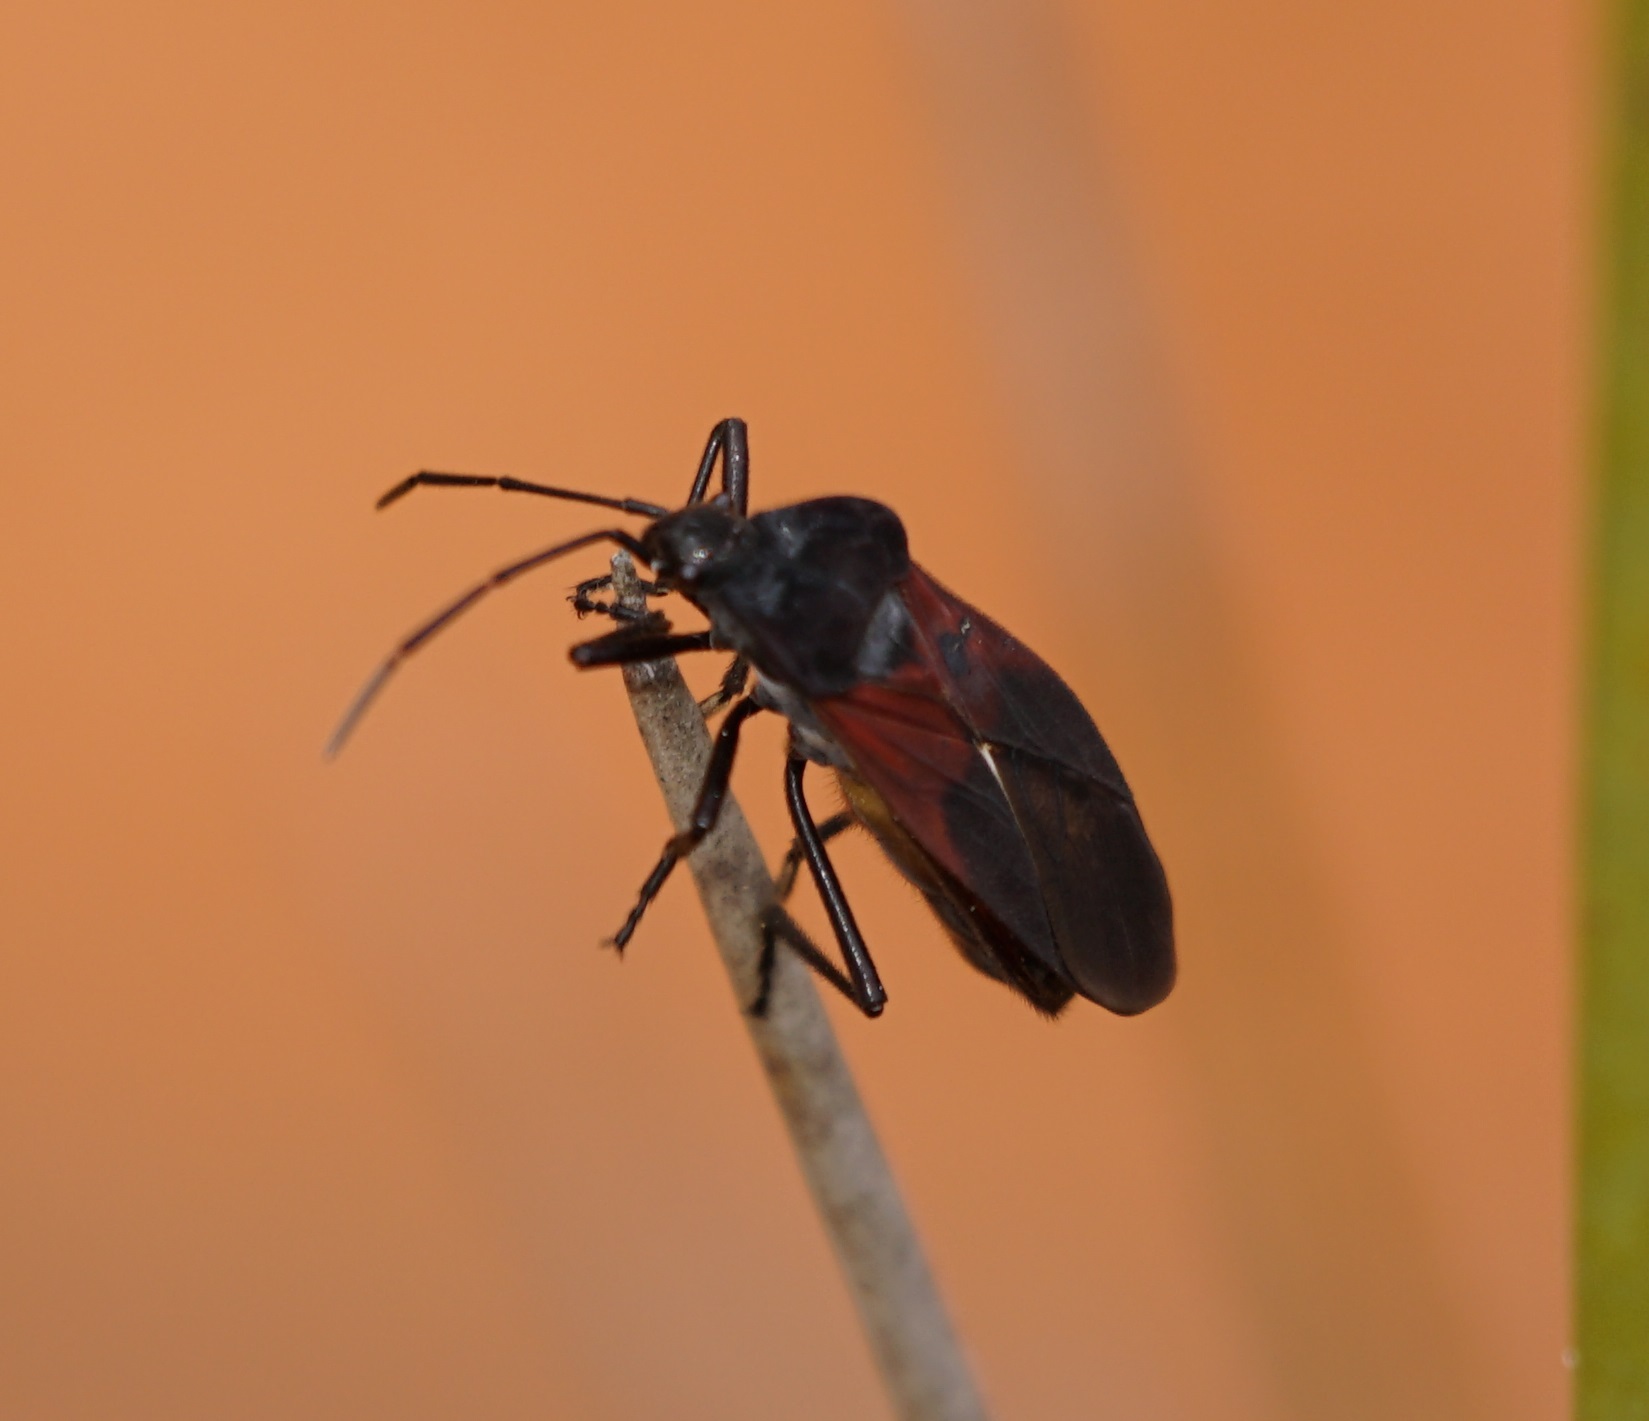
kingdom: Animalia
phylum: Arthropoda
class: Insecta
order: Hemiptera
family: Lygaeidae
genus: Oncopeltus
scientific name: Oncopeltus sordidus
